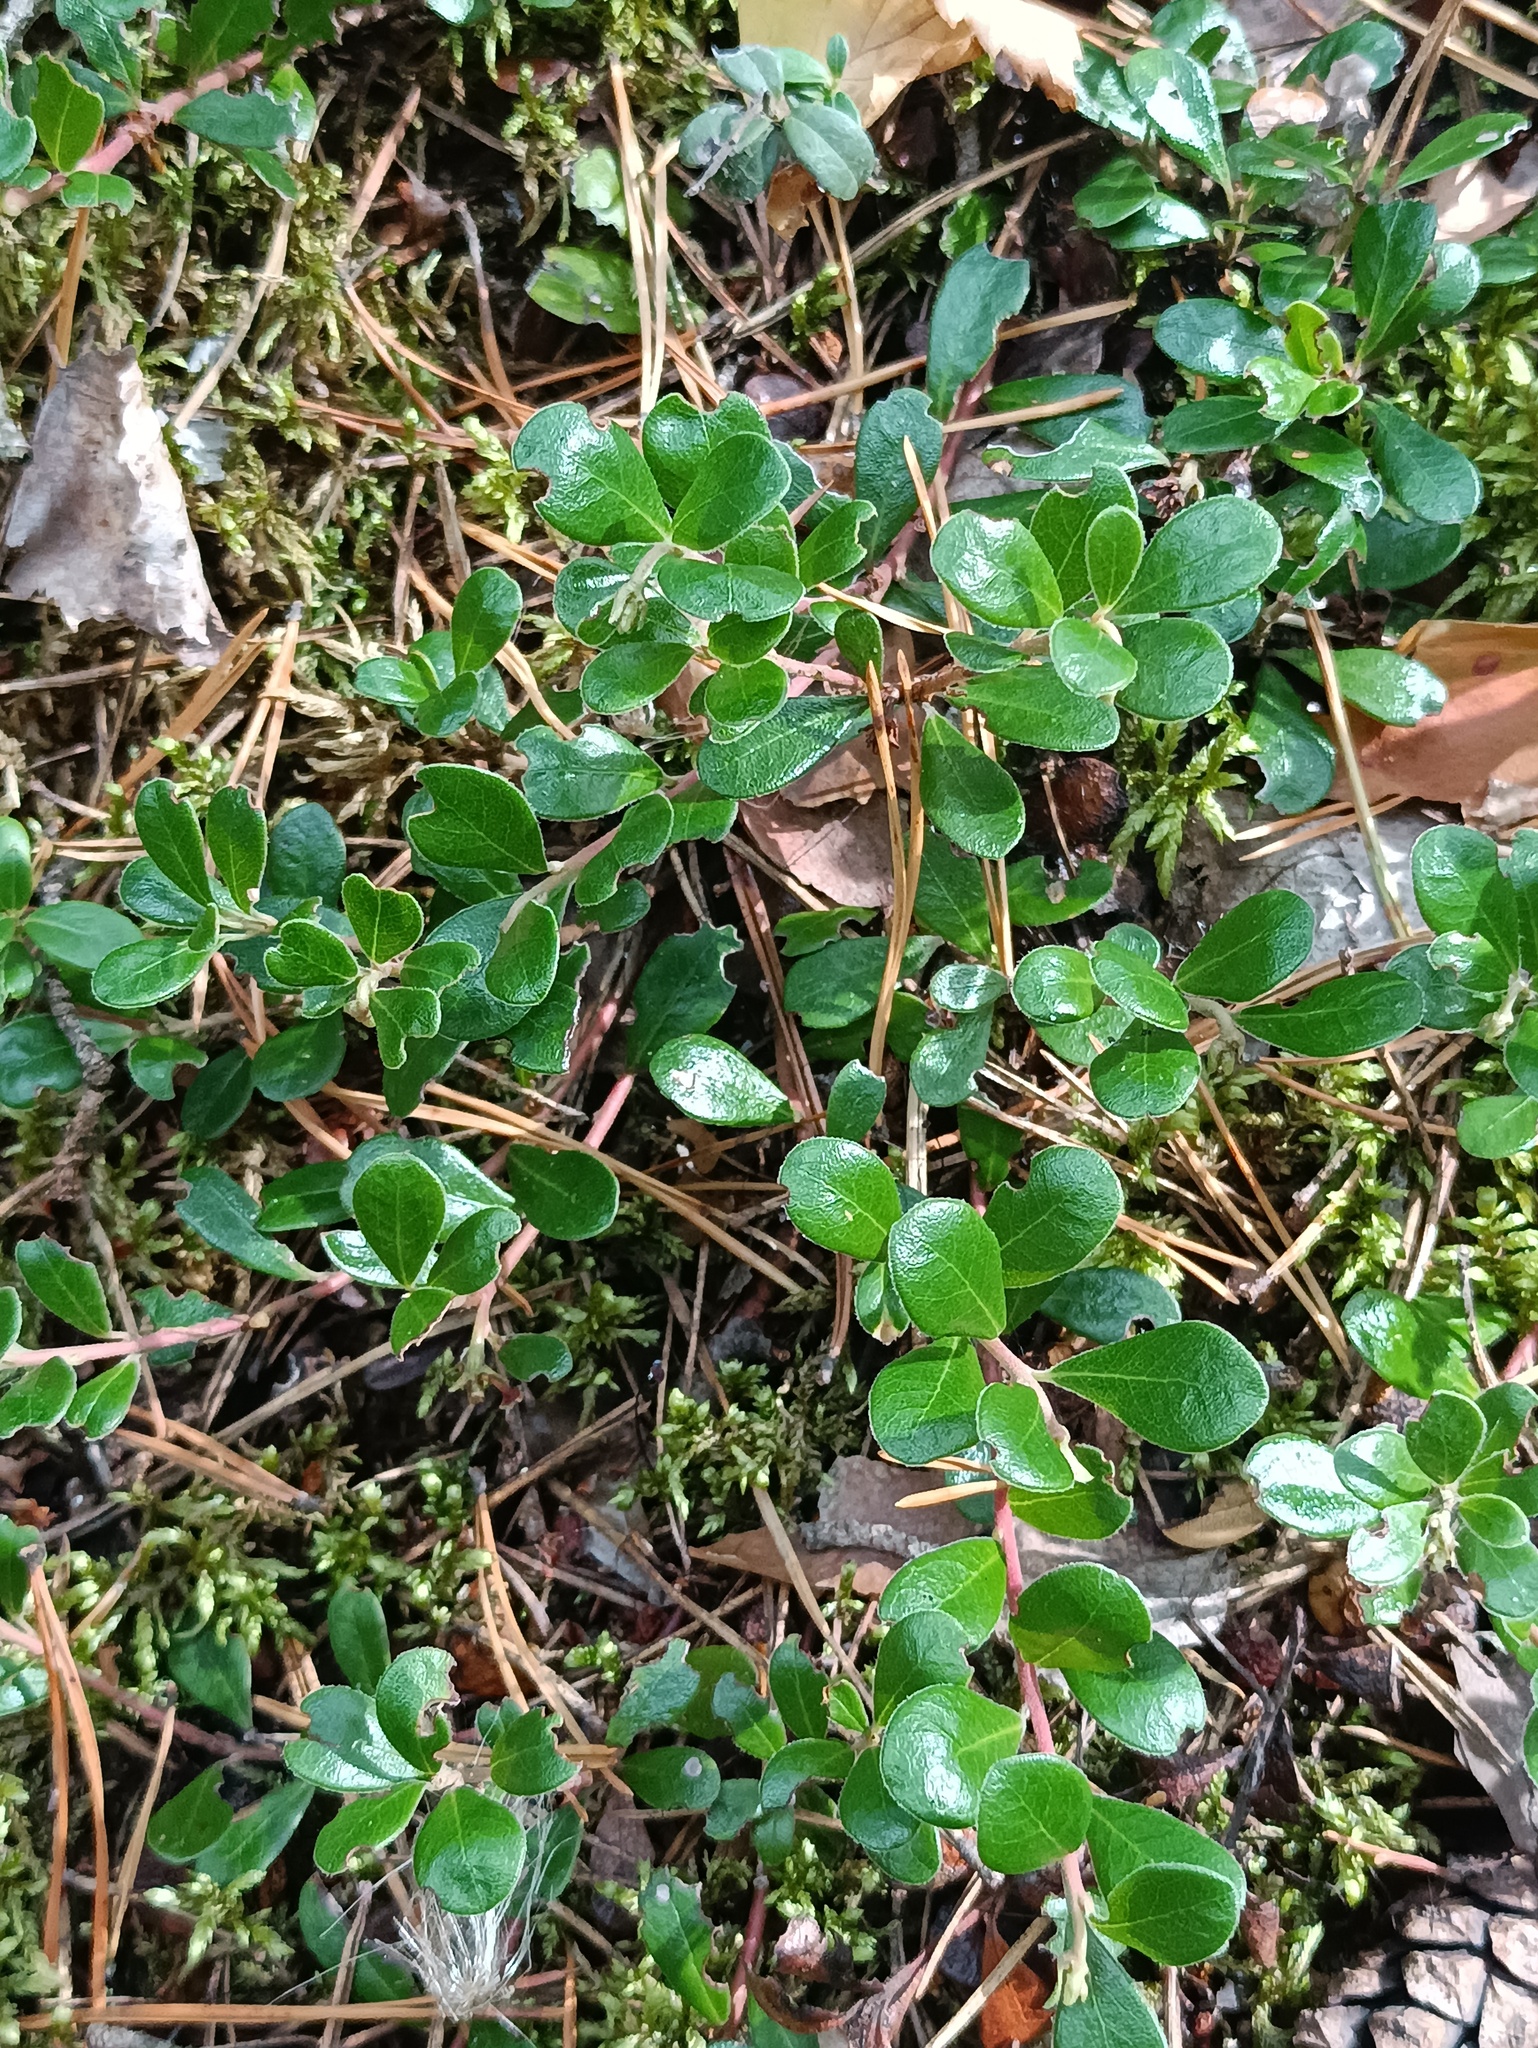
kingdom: Plantae
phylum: Tracheophyta
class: Magnoliopsida
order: Ericales
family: Ericaceae
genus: Arctostaphylos
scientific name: Arctostaphylos uva-ursi
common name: Bearberry
